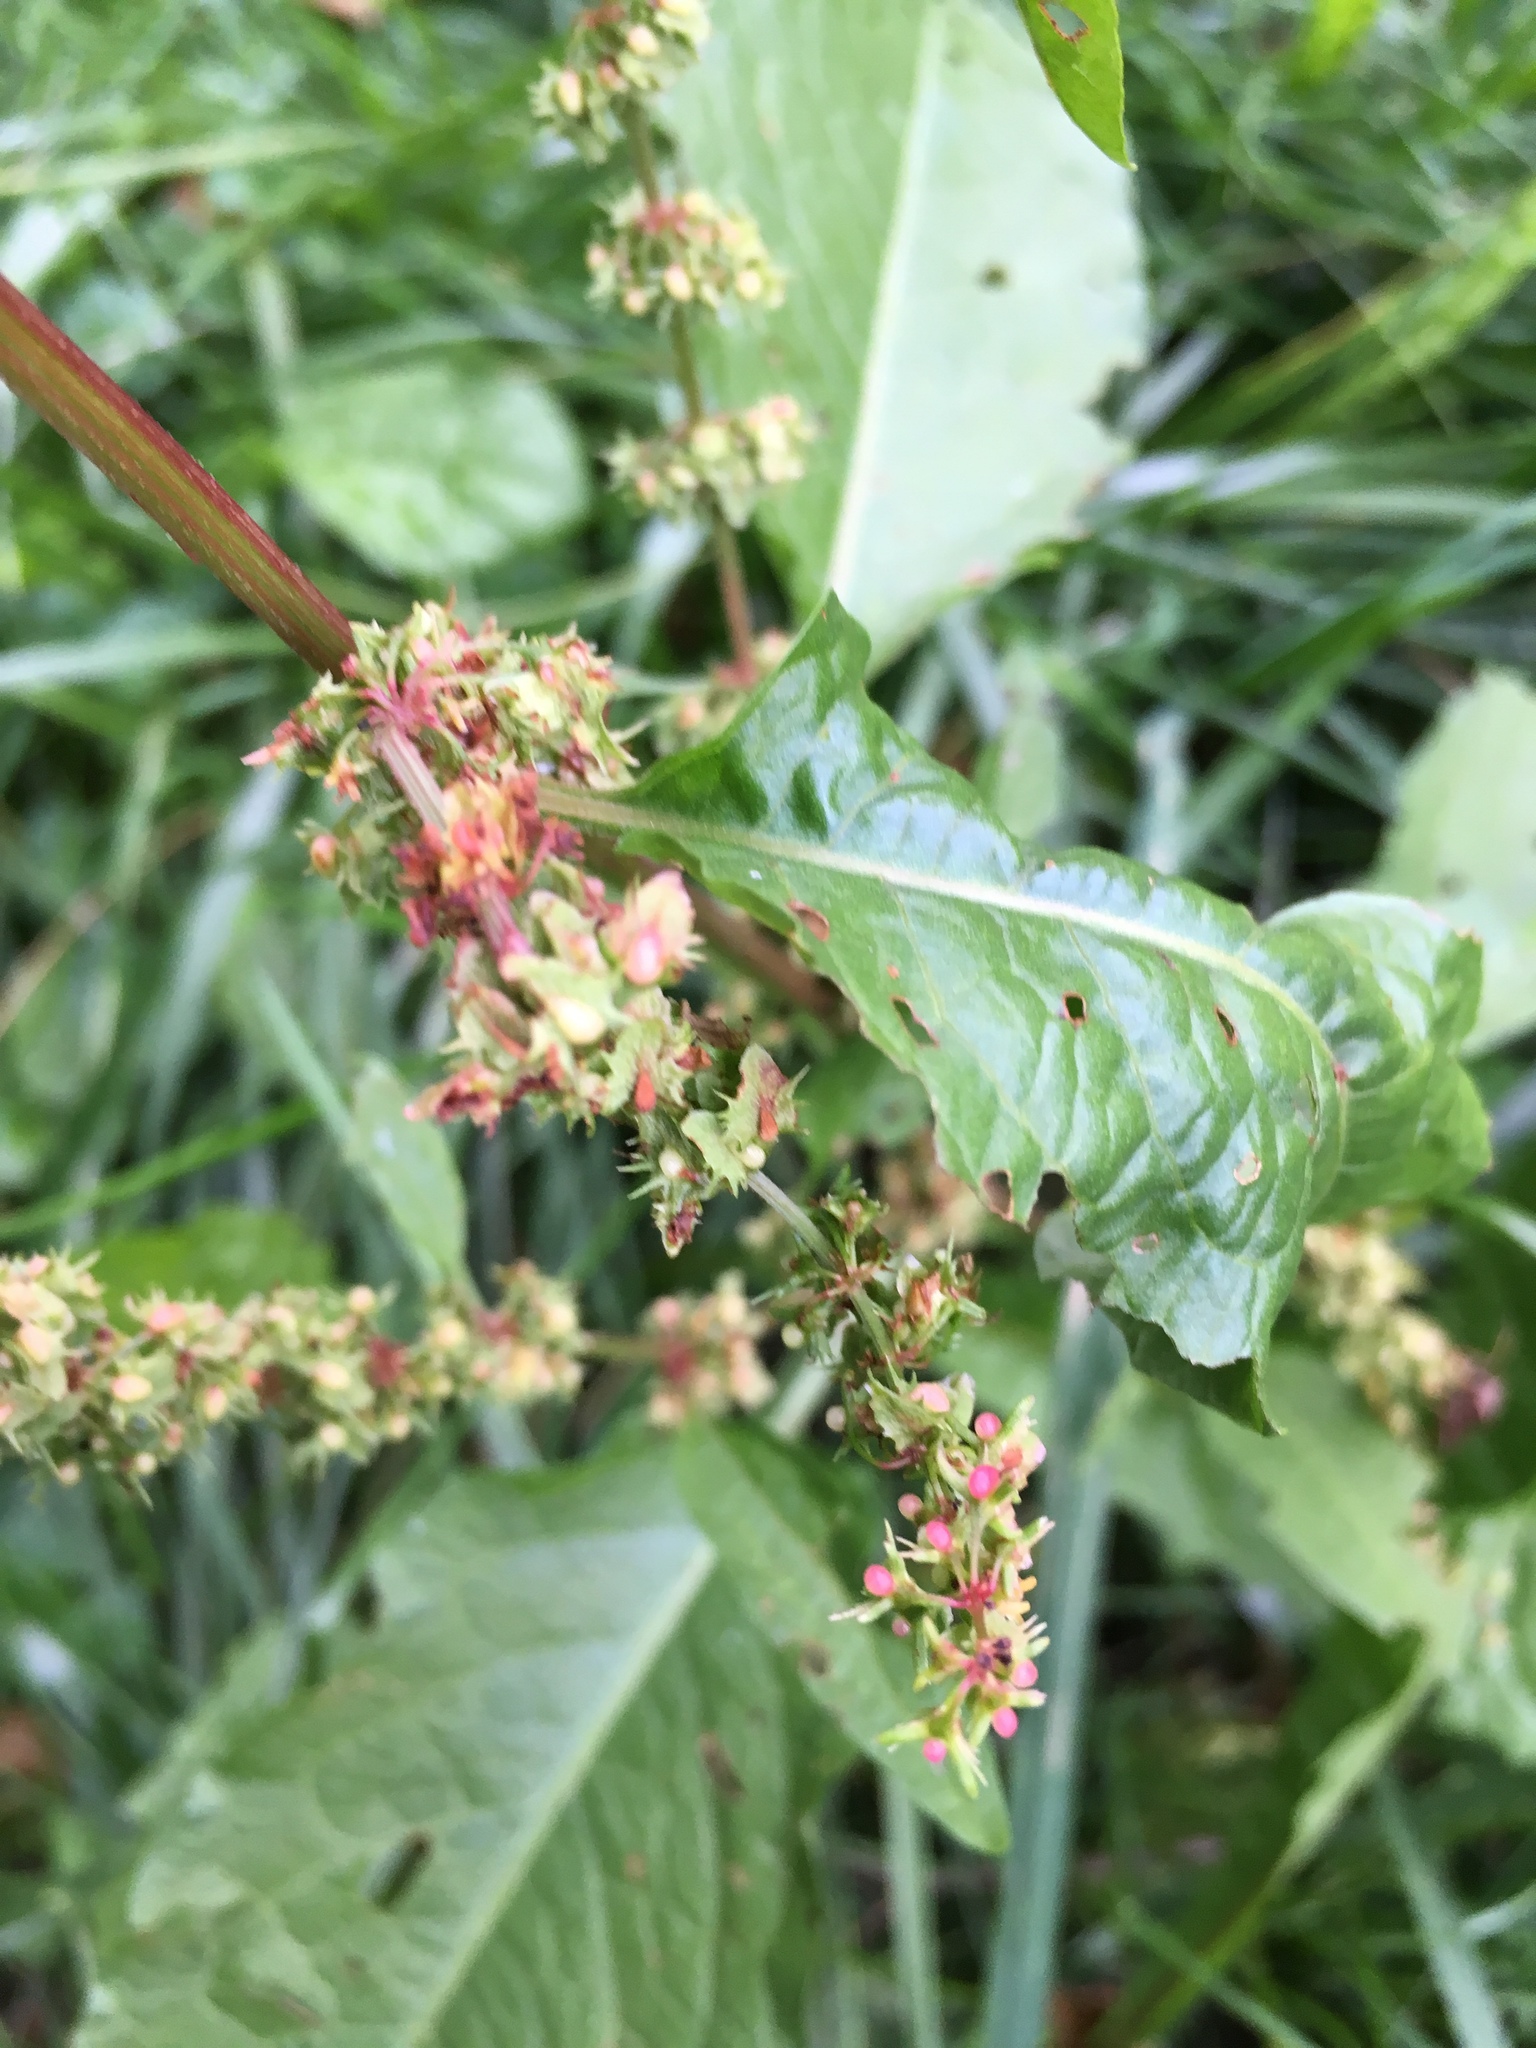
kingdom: Plantae
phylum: Tracheophyta
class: Magnoliopsida
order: Caryophyllales
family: Polygonaceae
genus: Rumex
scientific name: Rumex obtusifolius
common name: Bitter dock
